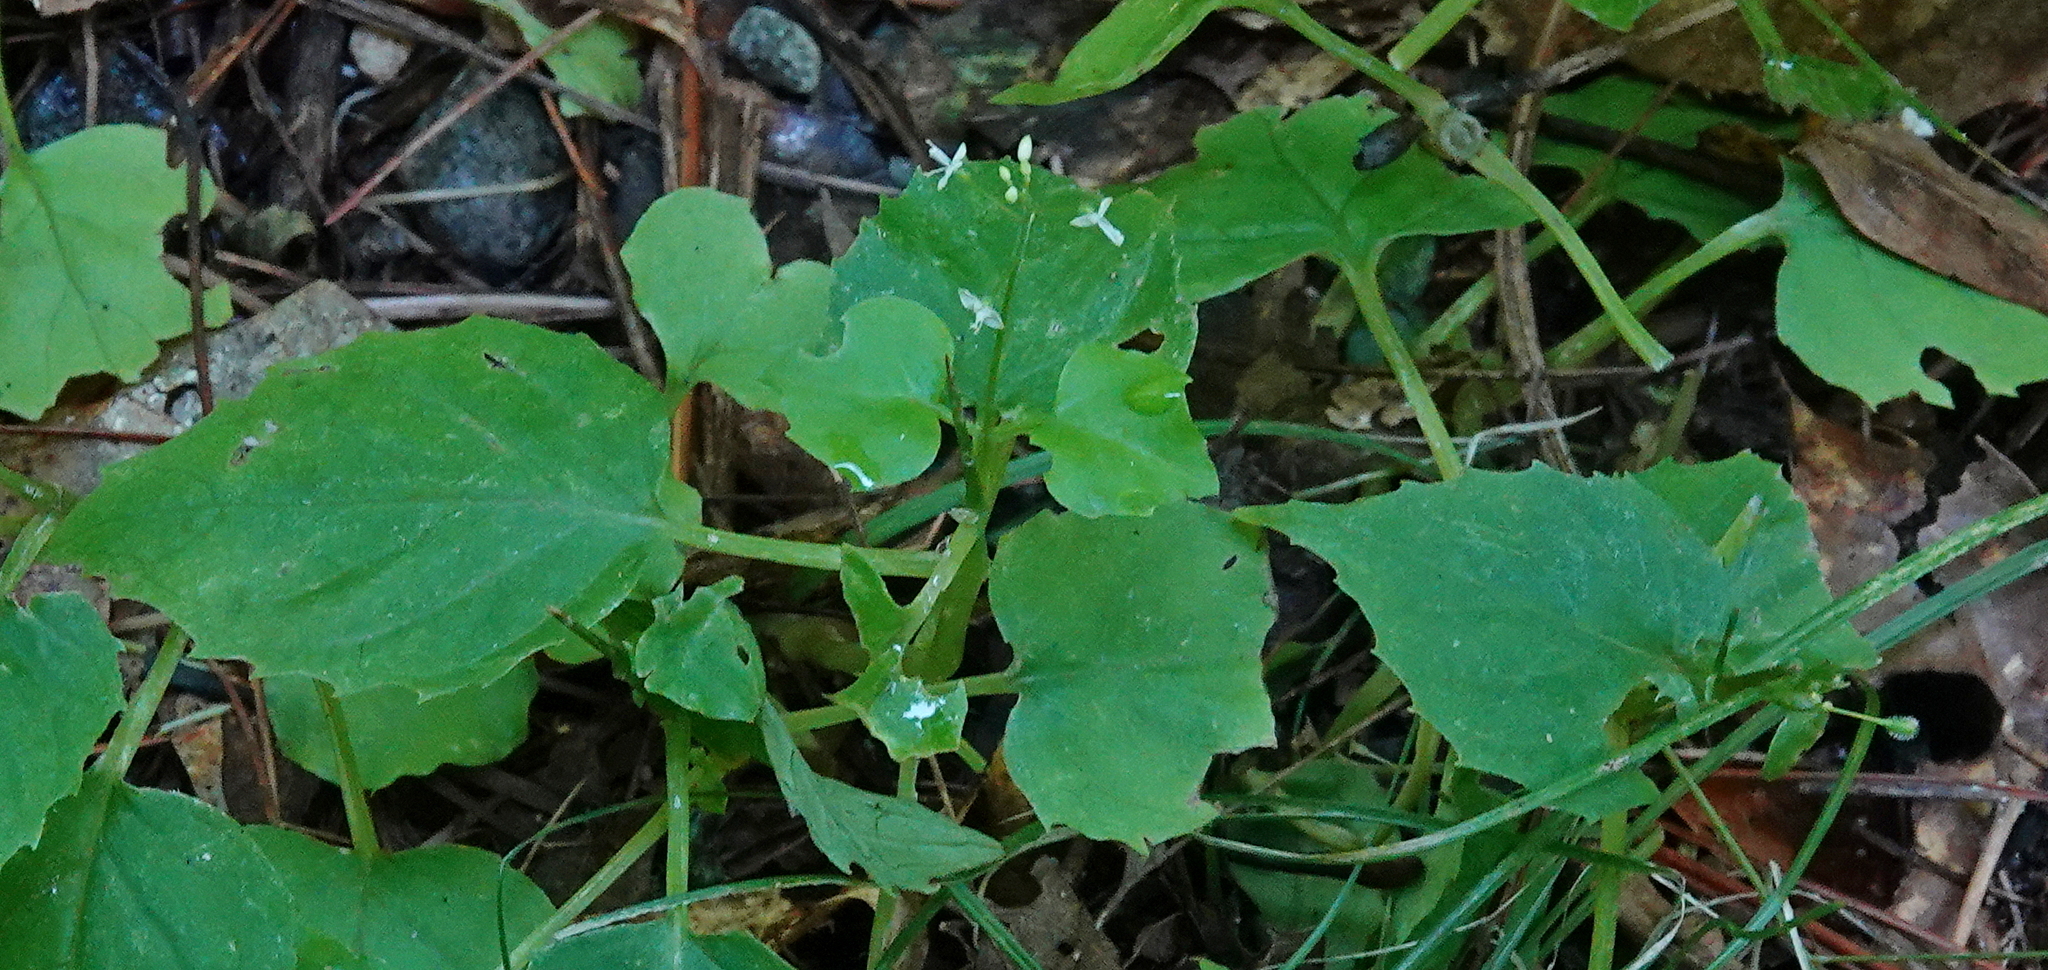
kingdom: Plantae
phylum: Tracheophyta
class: Magnoliopsida
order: Myrtales
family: Onagraceae
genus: Circaea
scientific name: Circaea alpina
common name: Alpine enchanter's-nightshade
